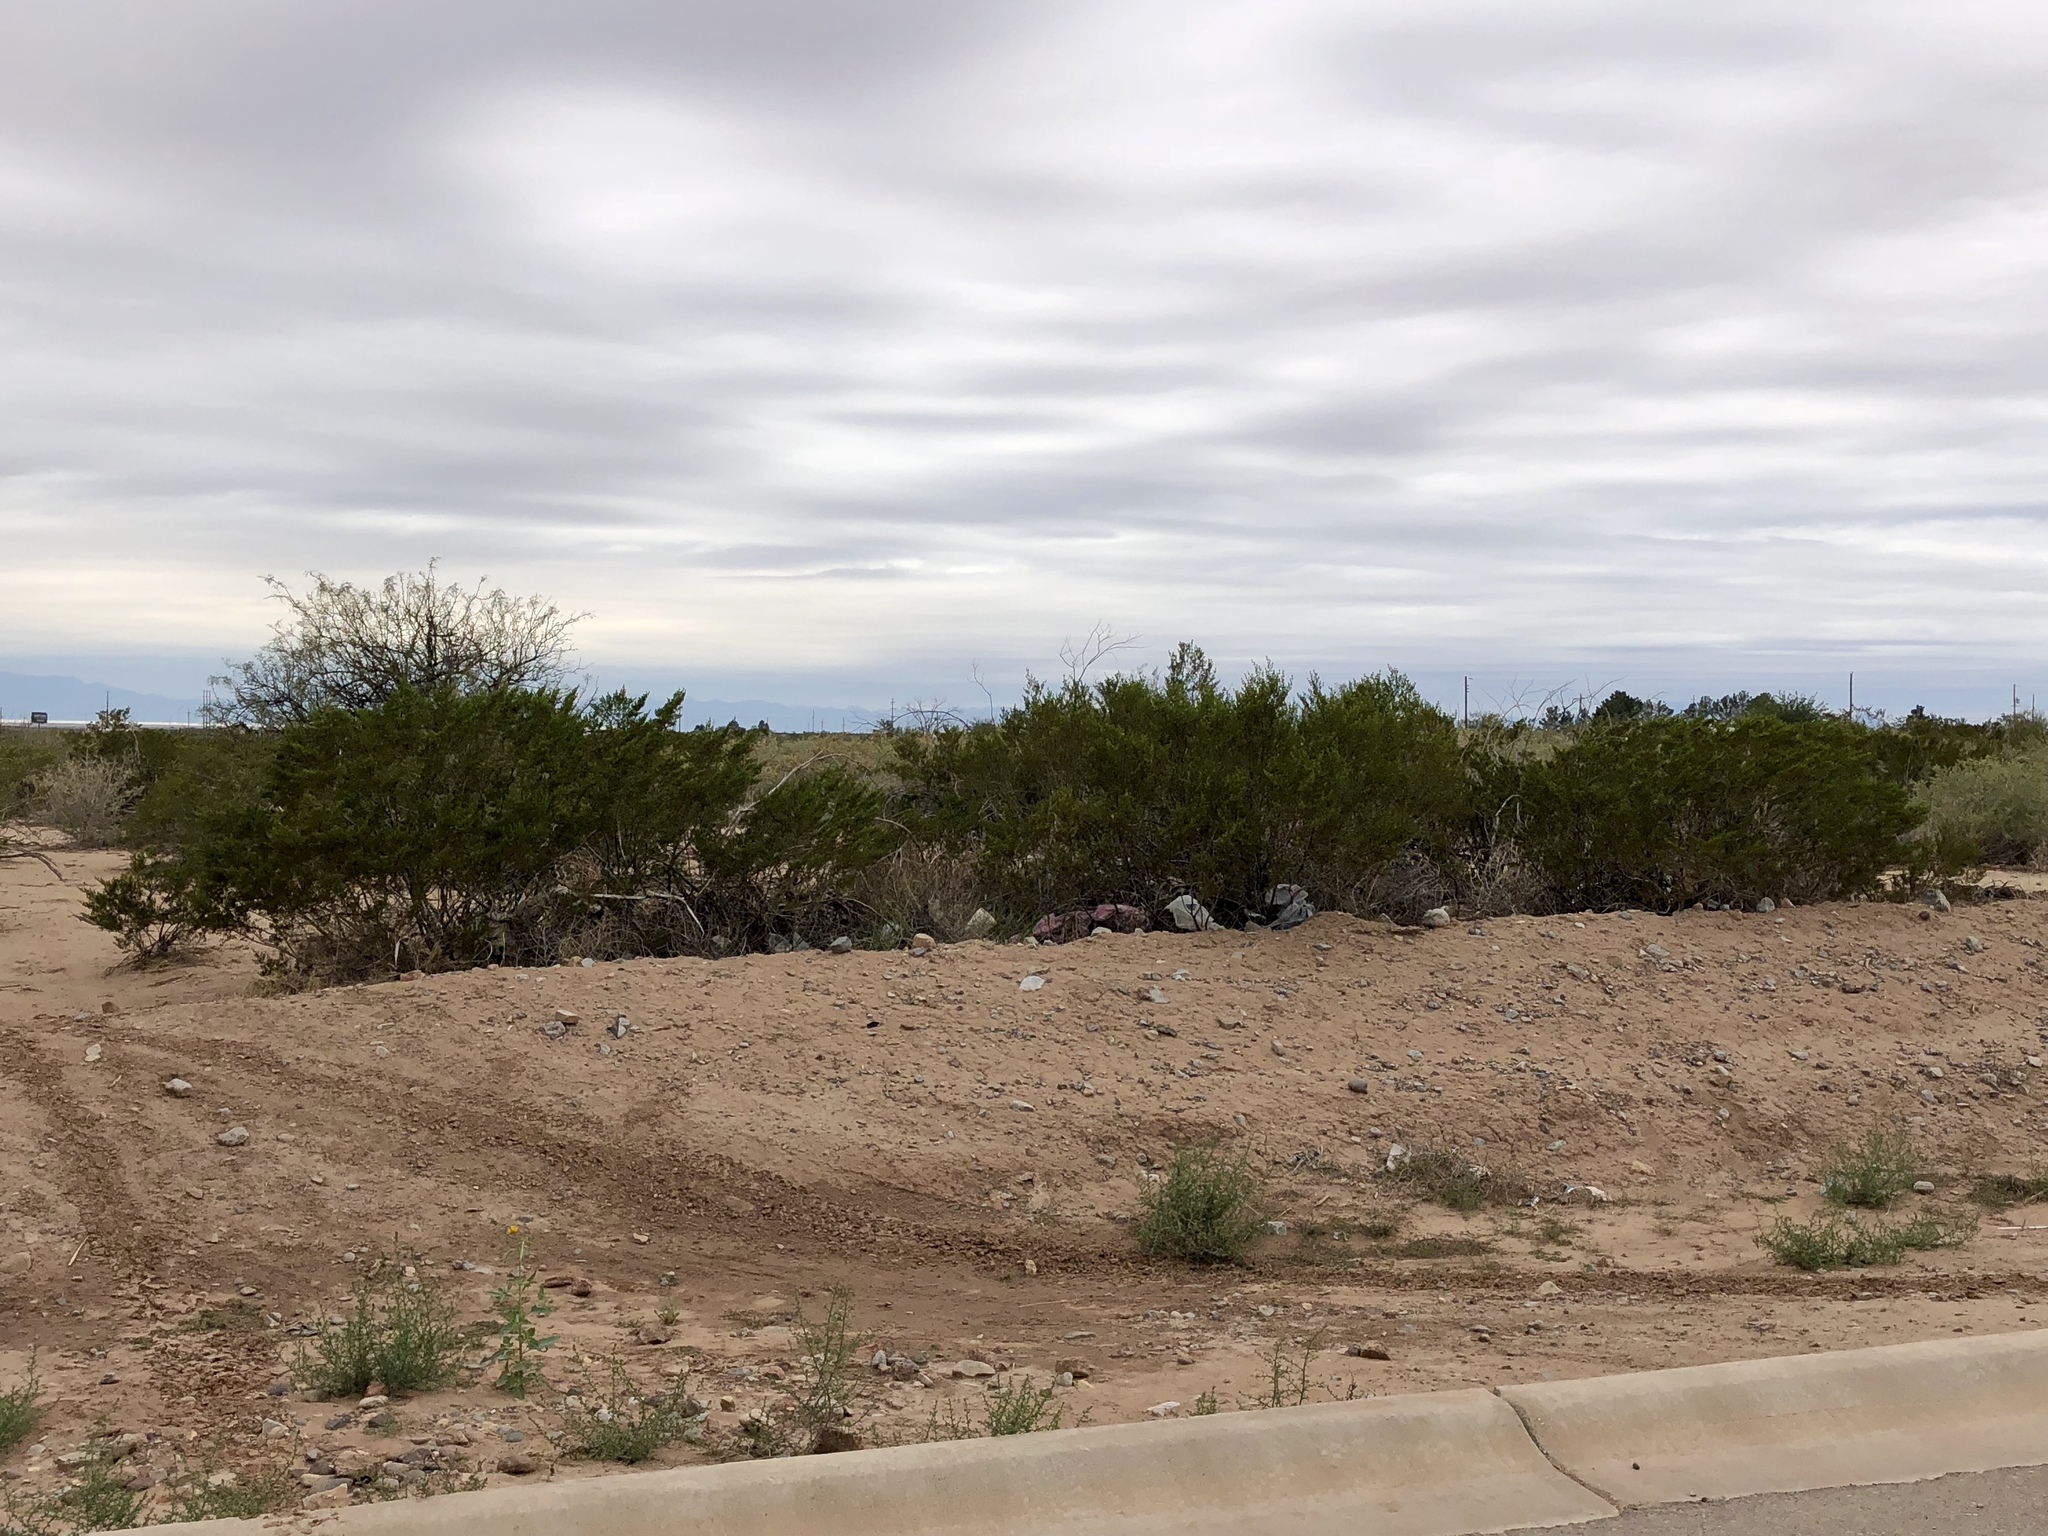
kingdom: Plantae
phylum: Tracheophyta
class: Magnoliopsida
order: Zygophyllales
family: Zygophyllaceae
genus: Larrea
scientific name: Larrea tridentata
